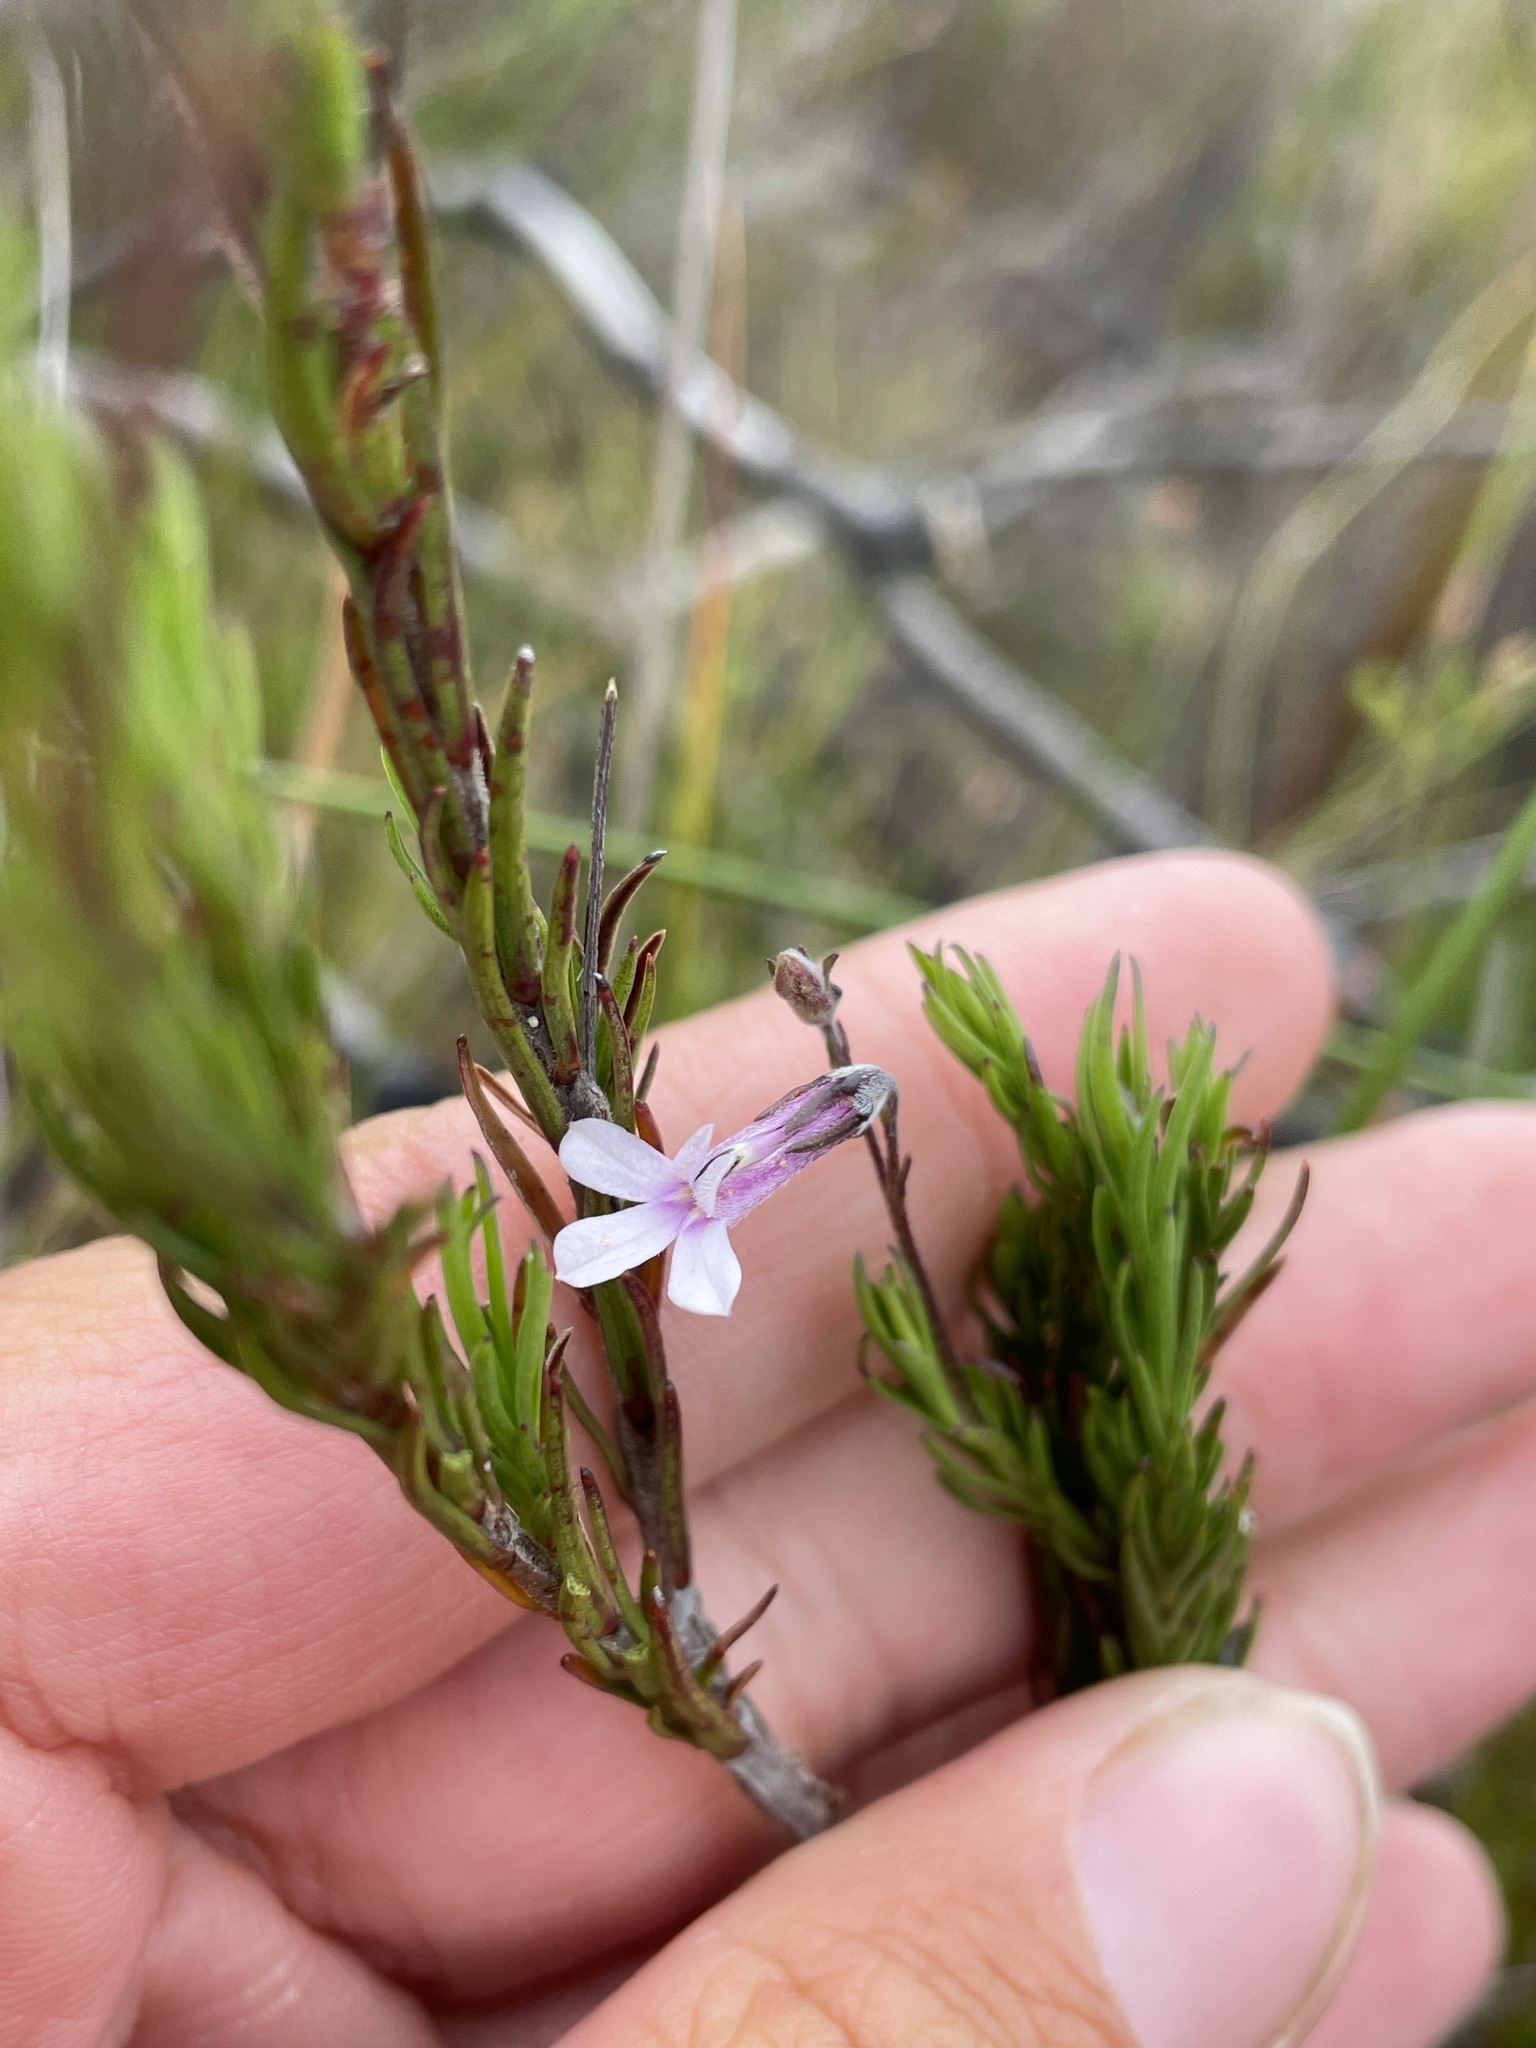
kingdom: Plantae
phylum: Tracheophyta
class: Magnoliopsida
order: Asterales
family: Campanulaceae
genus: Lobelia
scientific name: Lobelia pinifolia
